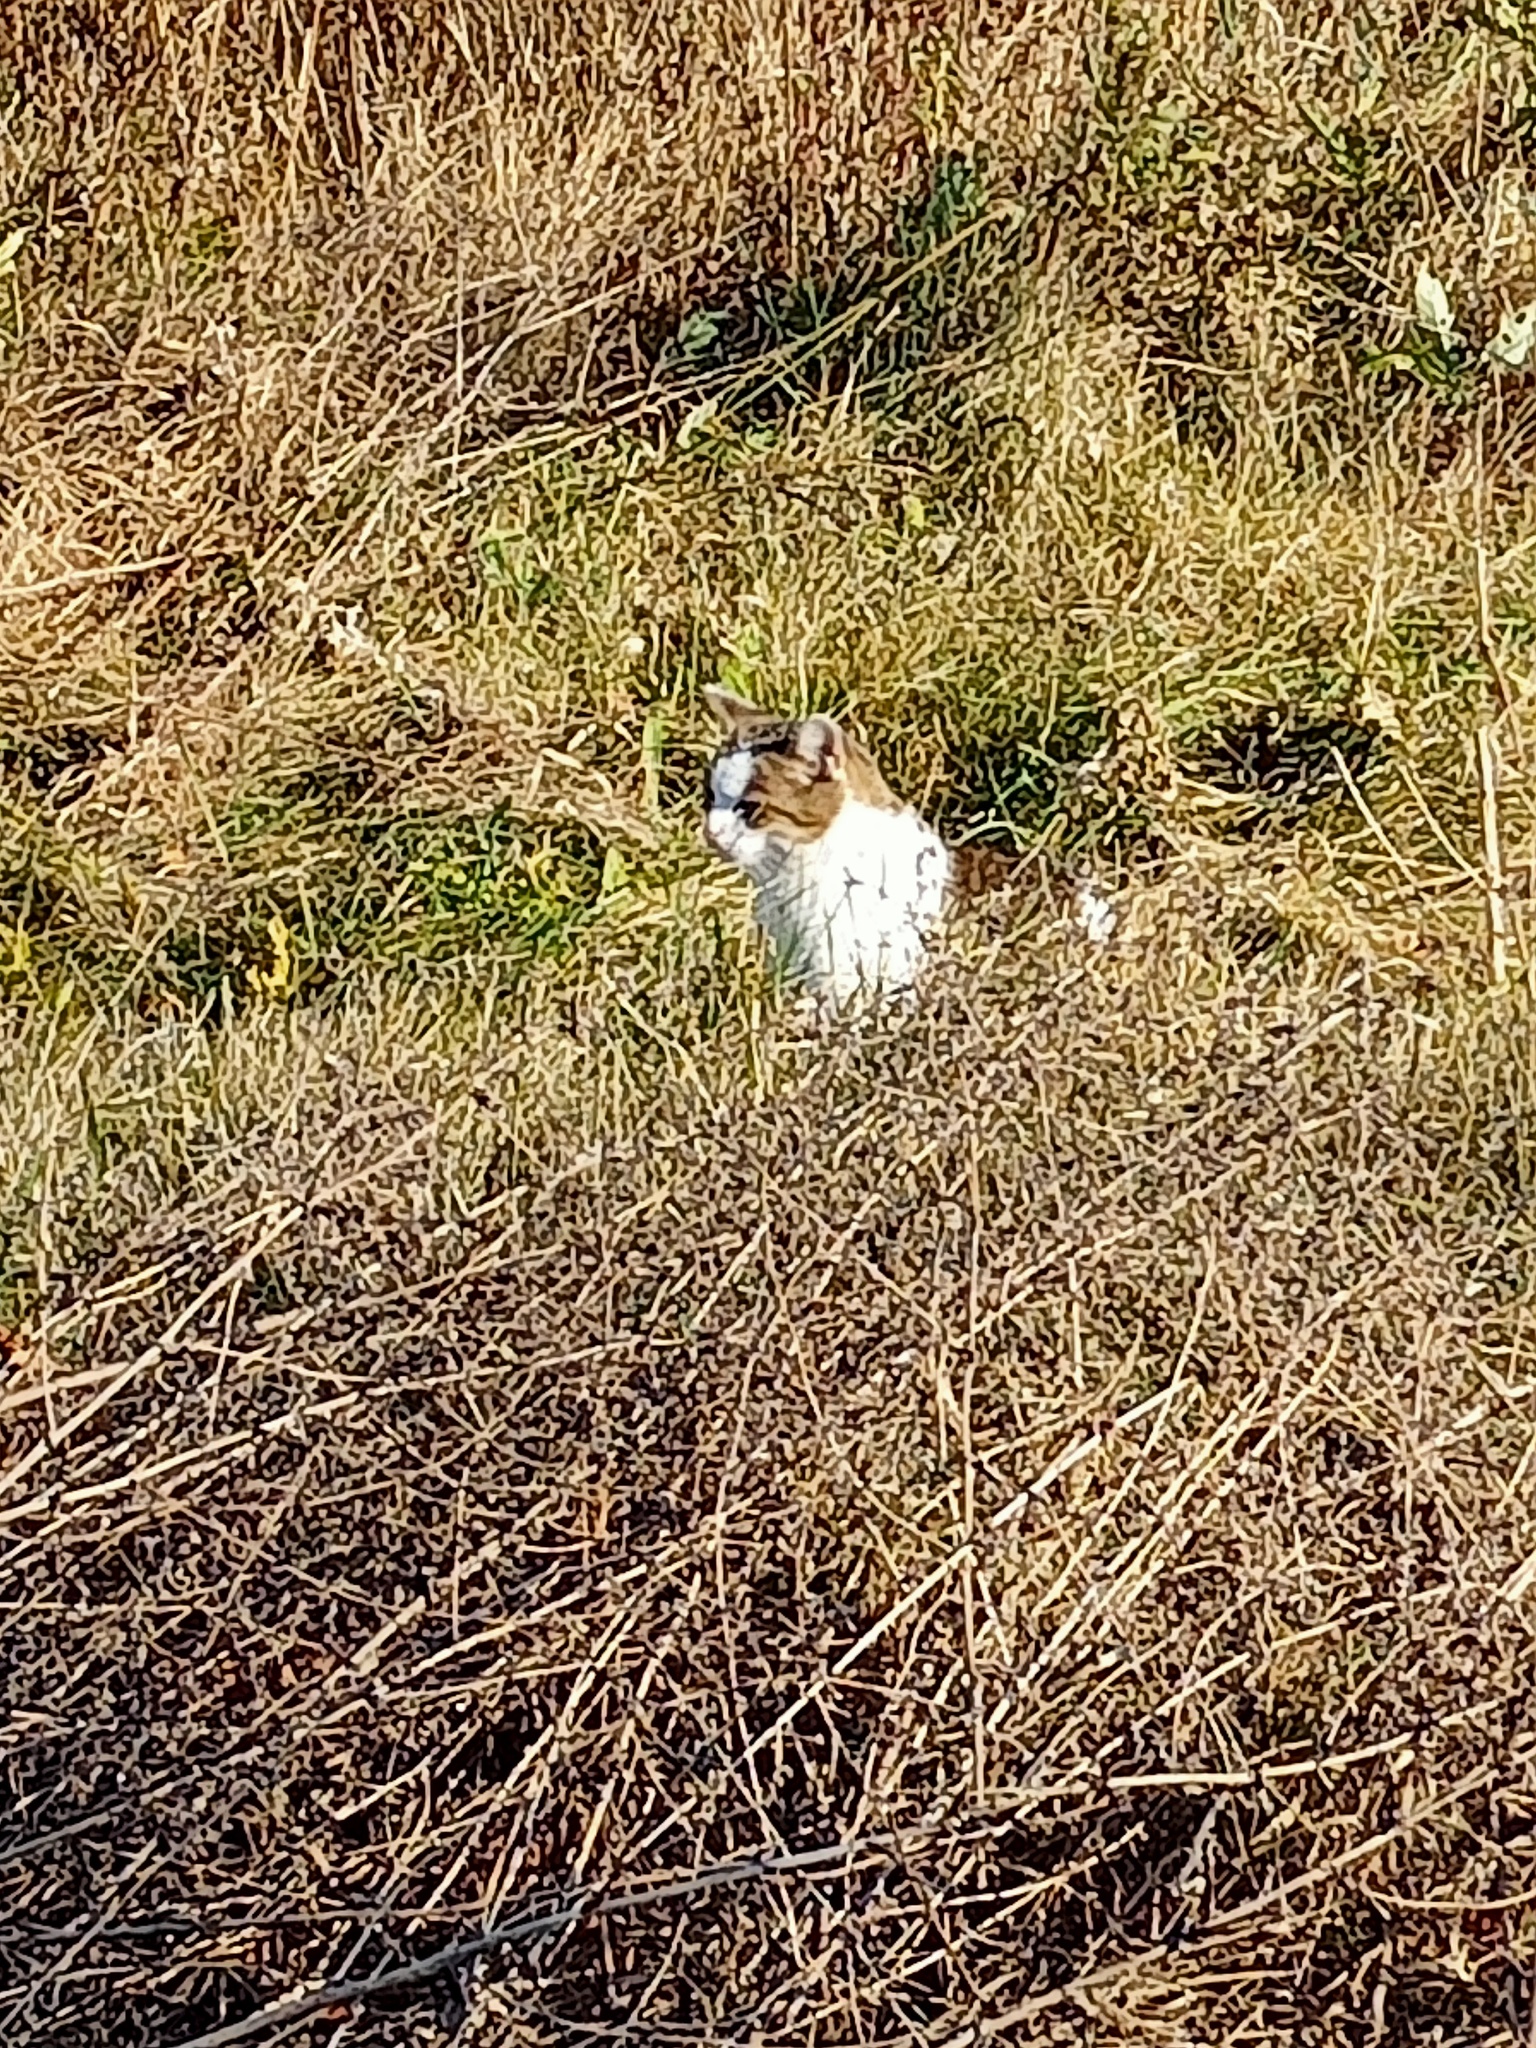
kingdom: Animalia
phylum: Chordata
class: Mammalia
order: Carnivora
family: Felidae
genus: Felis
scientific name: Felis catus
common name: Domestic cat
